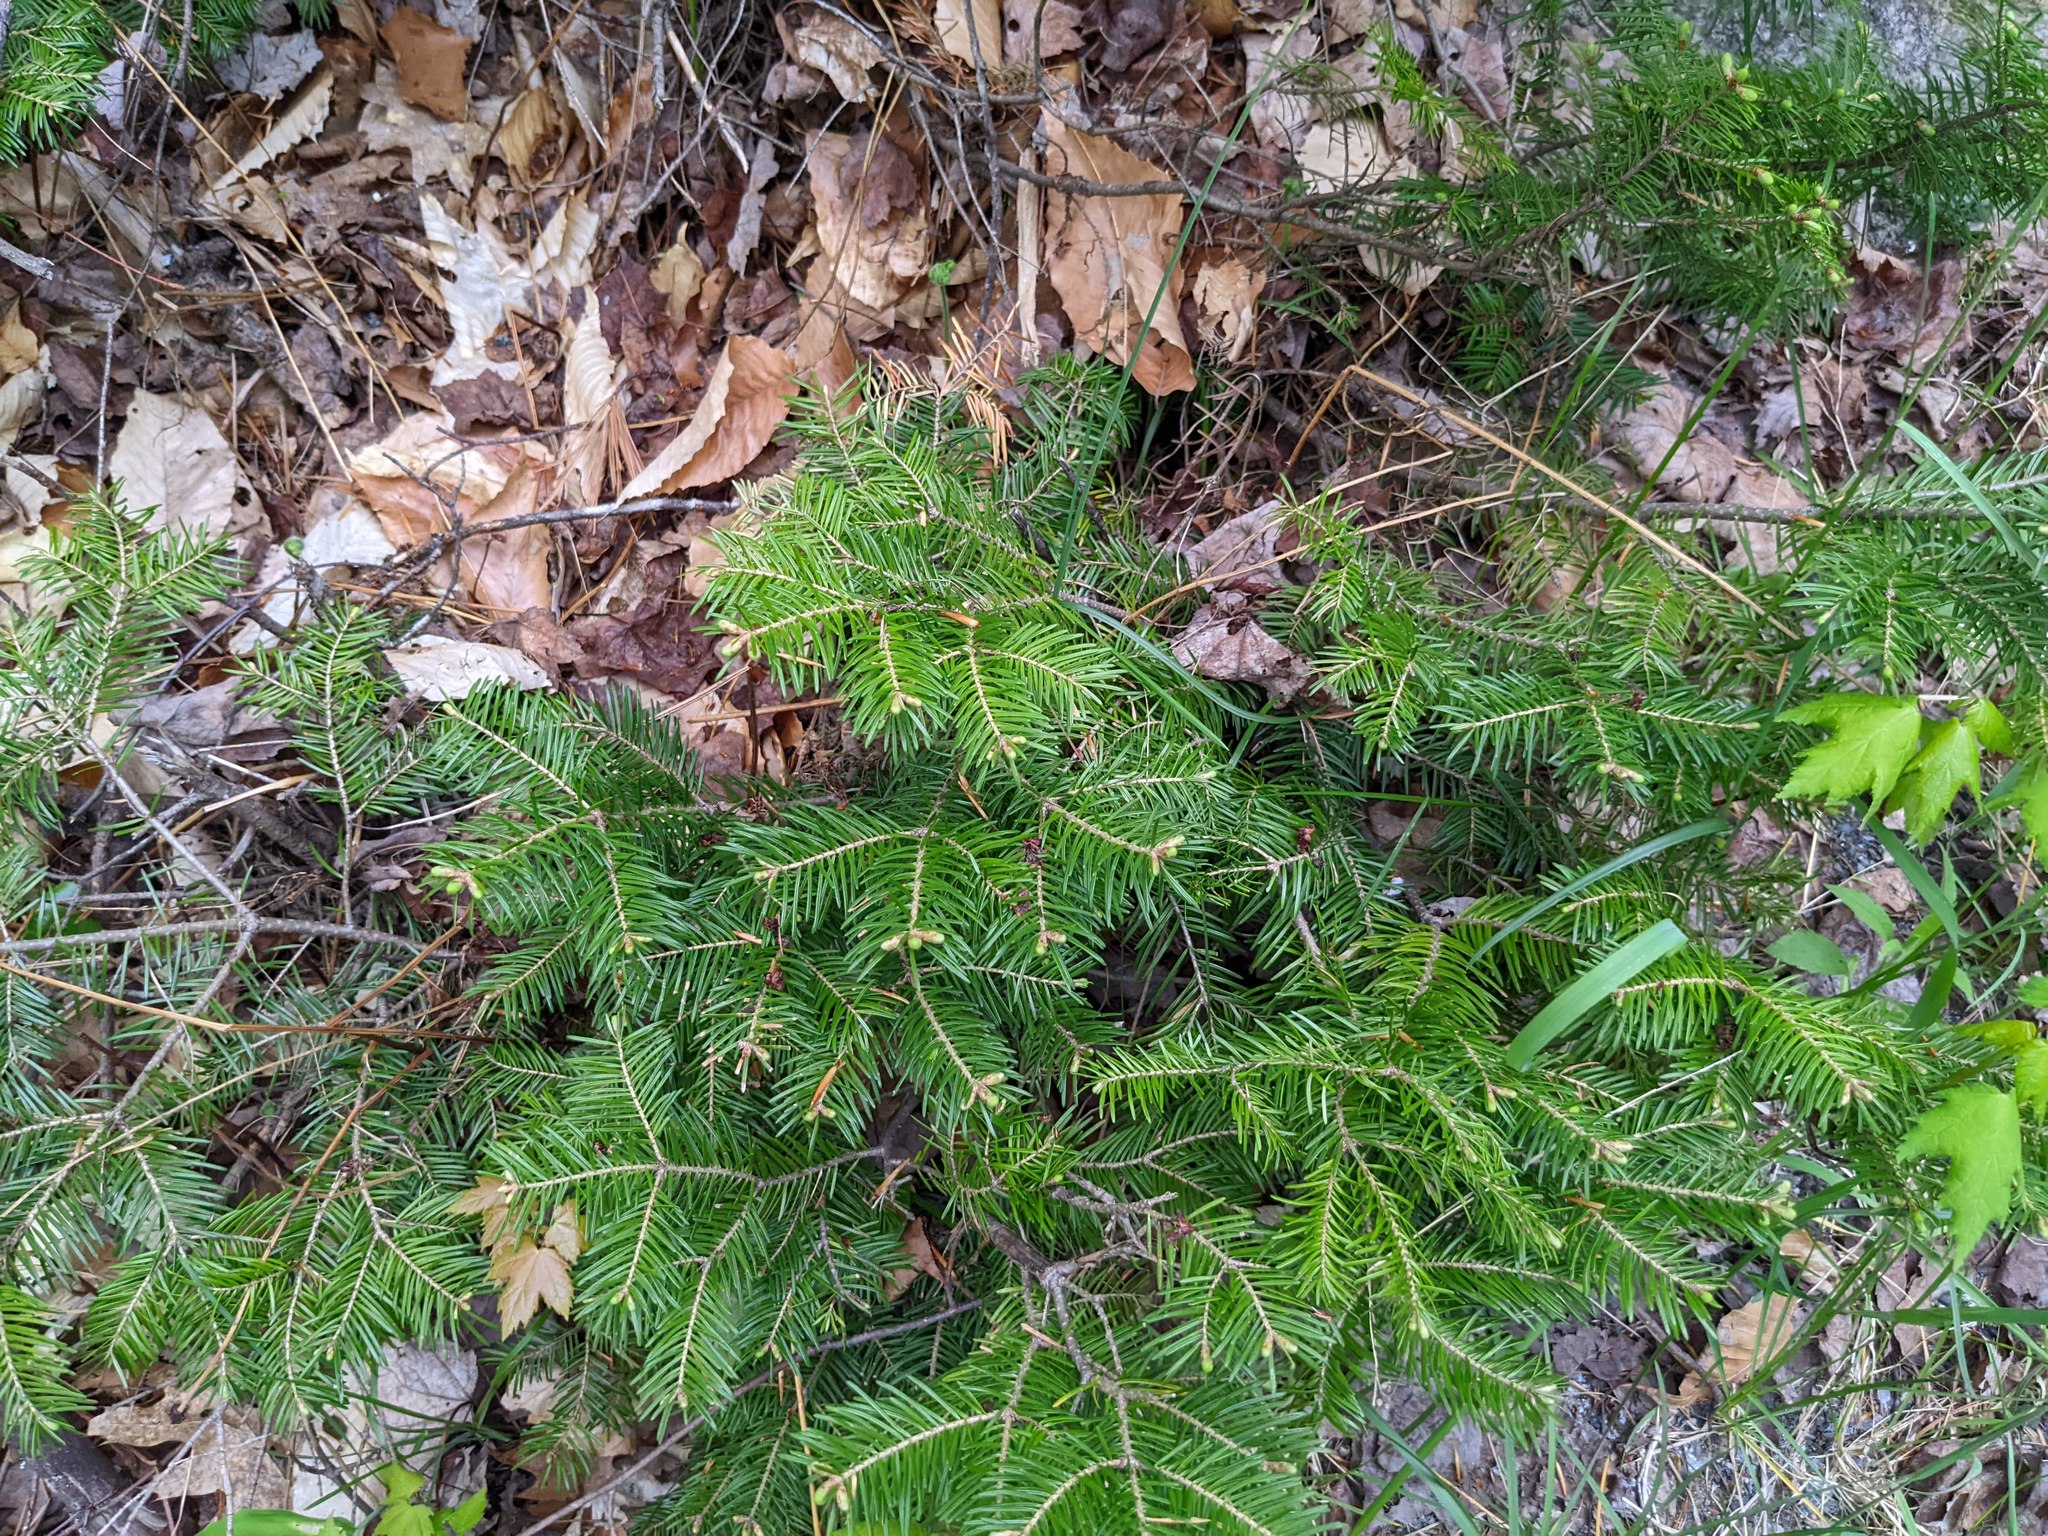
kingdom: Plantae
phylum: Tracheophyta
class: Pinopsida
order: Pinales
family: Pinaceae
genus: Abies
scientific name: Abies balsamea
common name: Balsam fir
